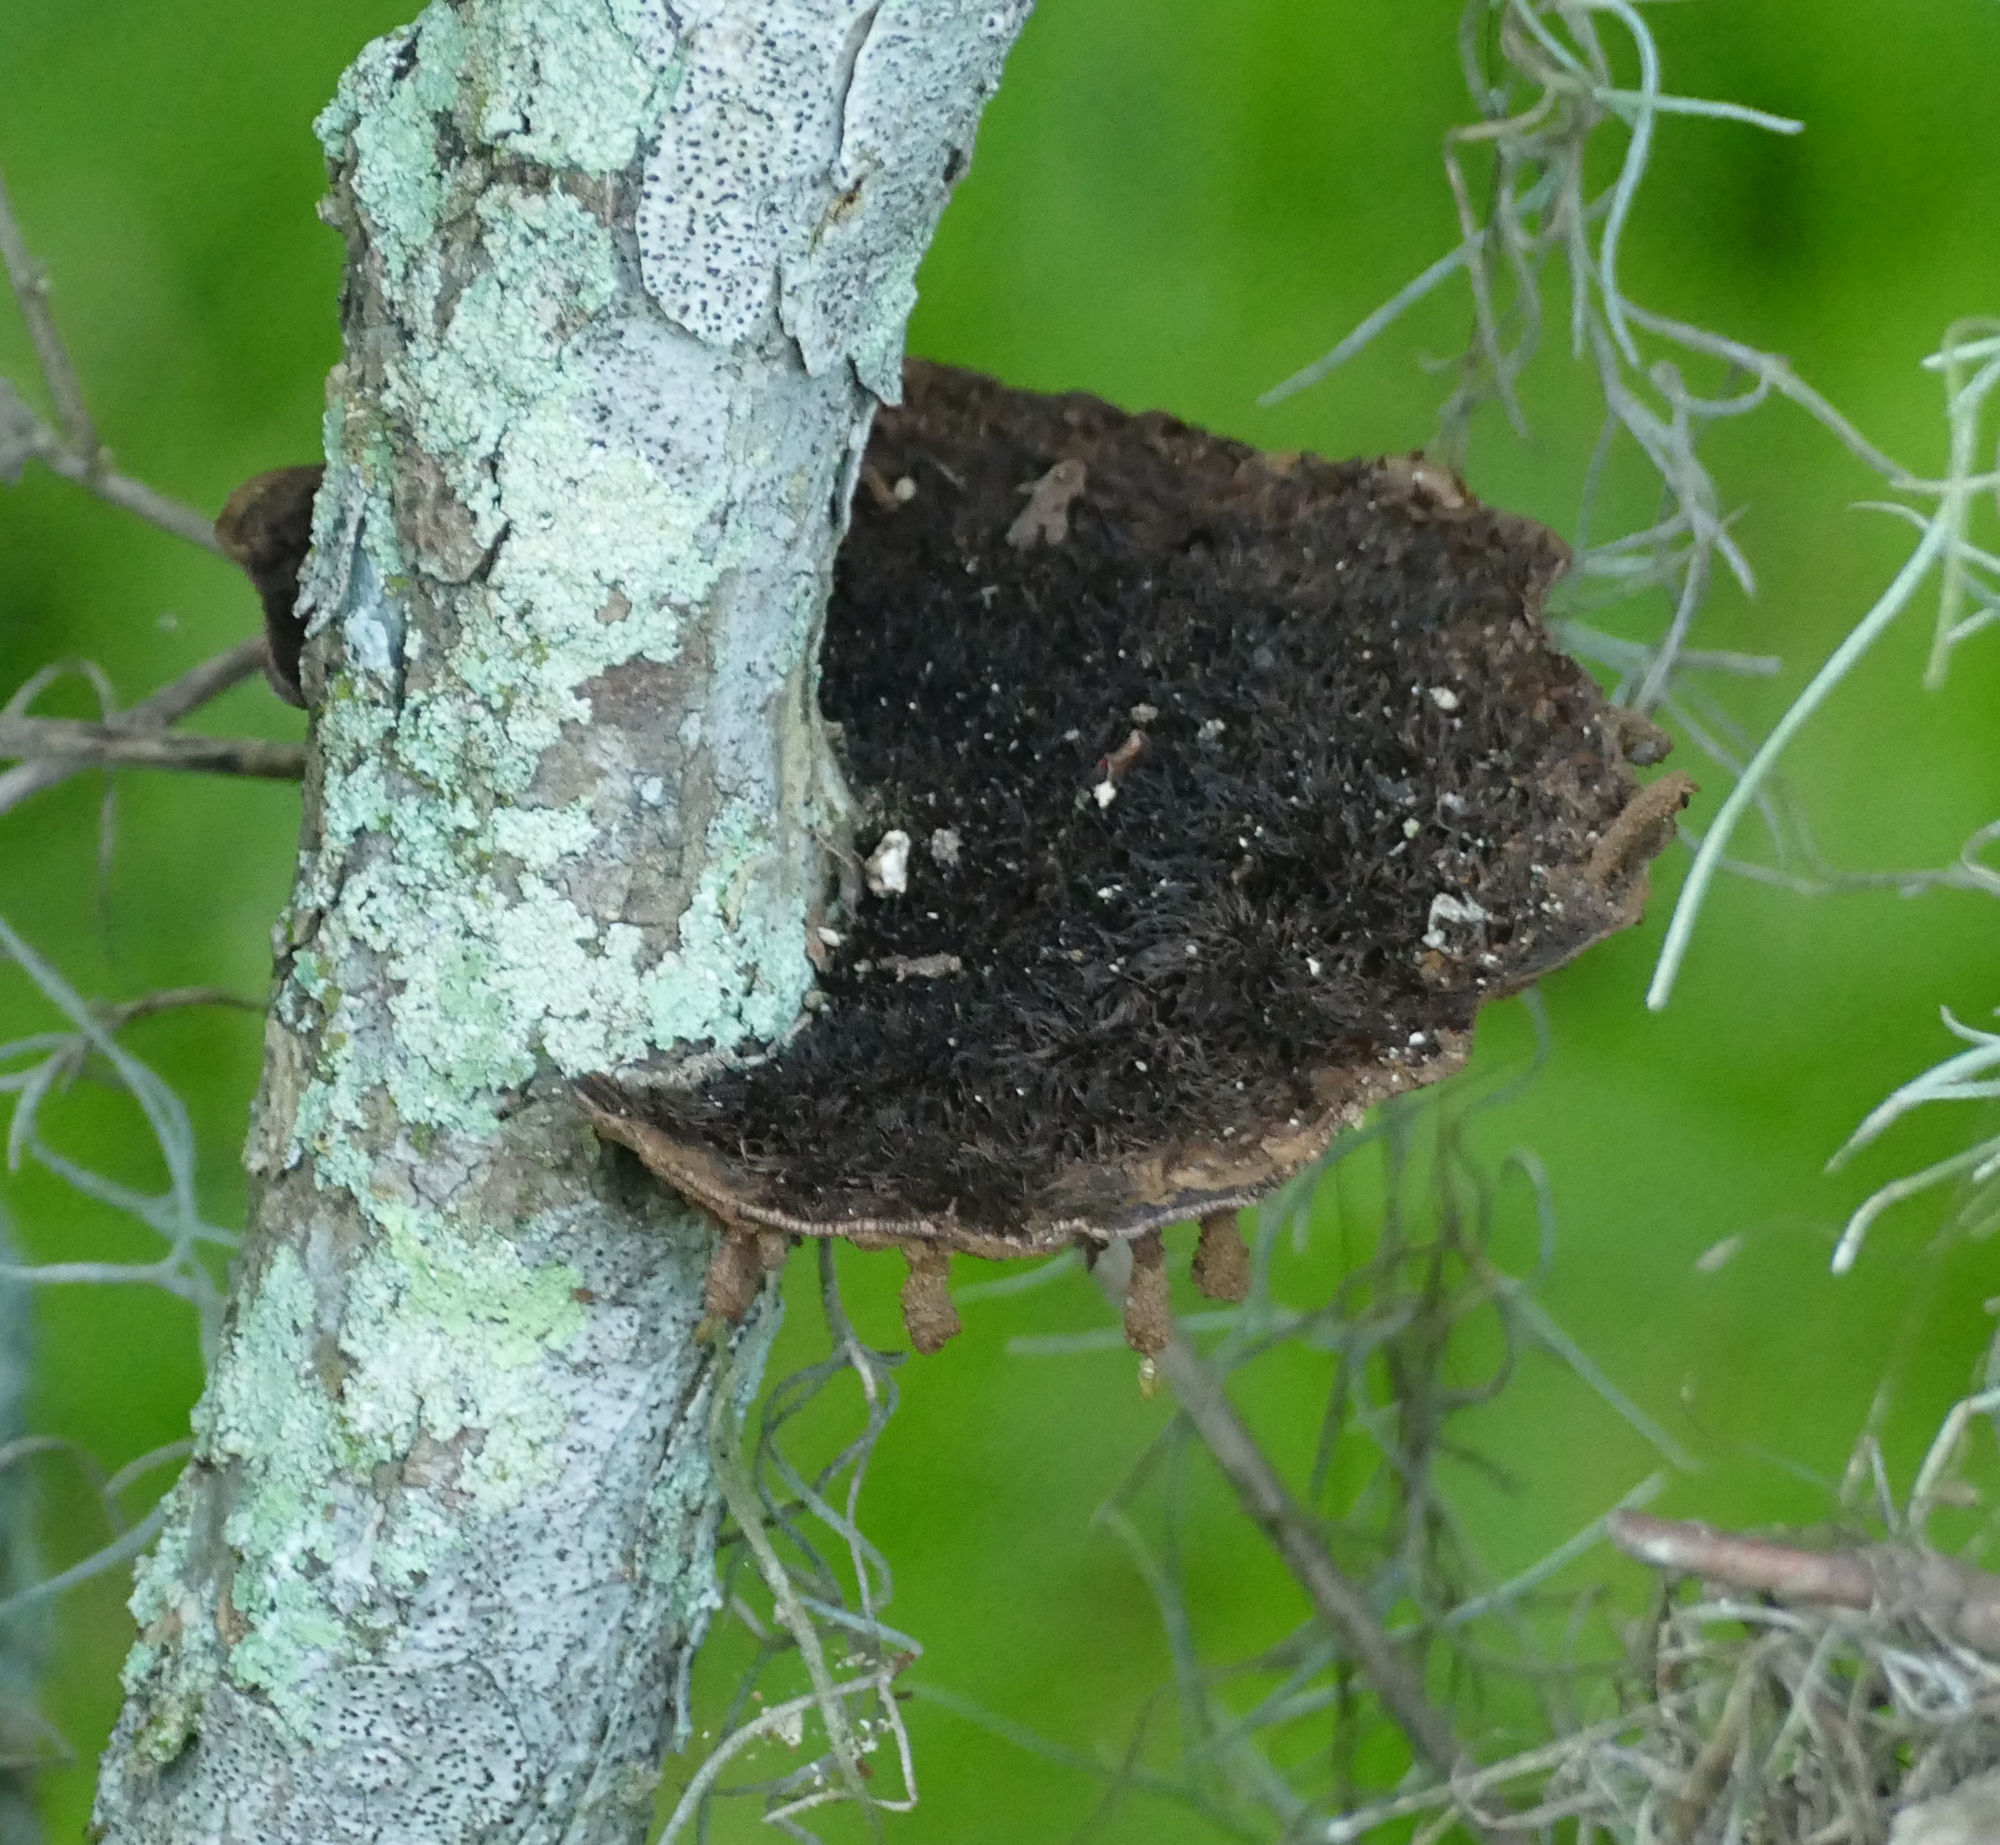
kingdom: Fungi
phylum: Basidiomycota
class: Agaricomycetes
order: Polyporales
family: Cerrenaceae
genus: Cerrena
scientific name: Cerrena hydnoides
